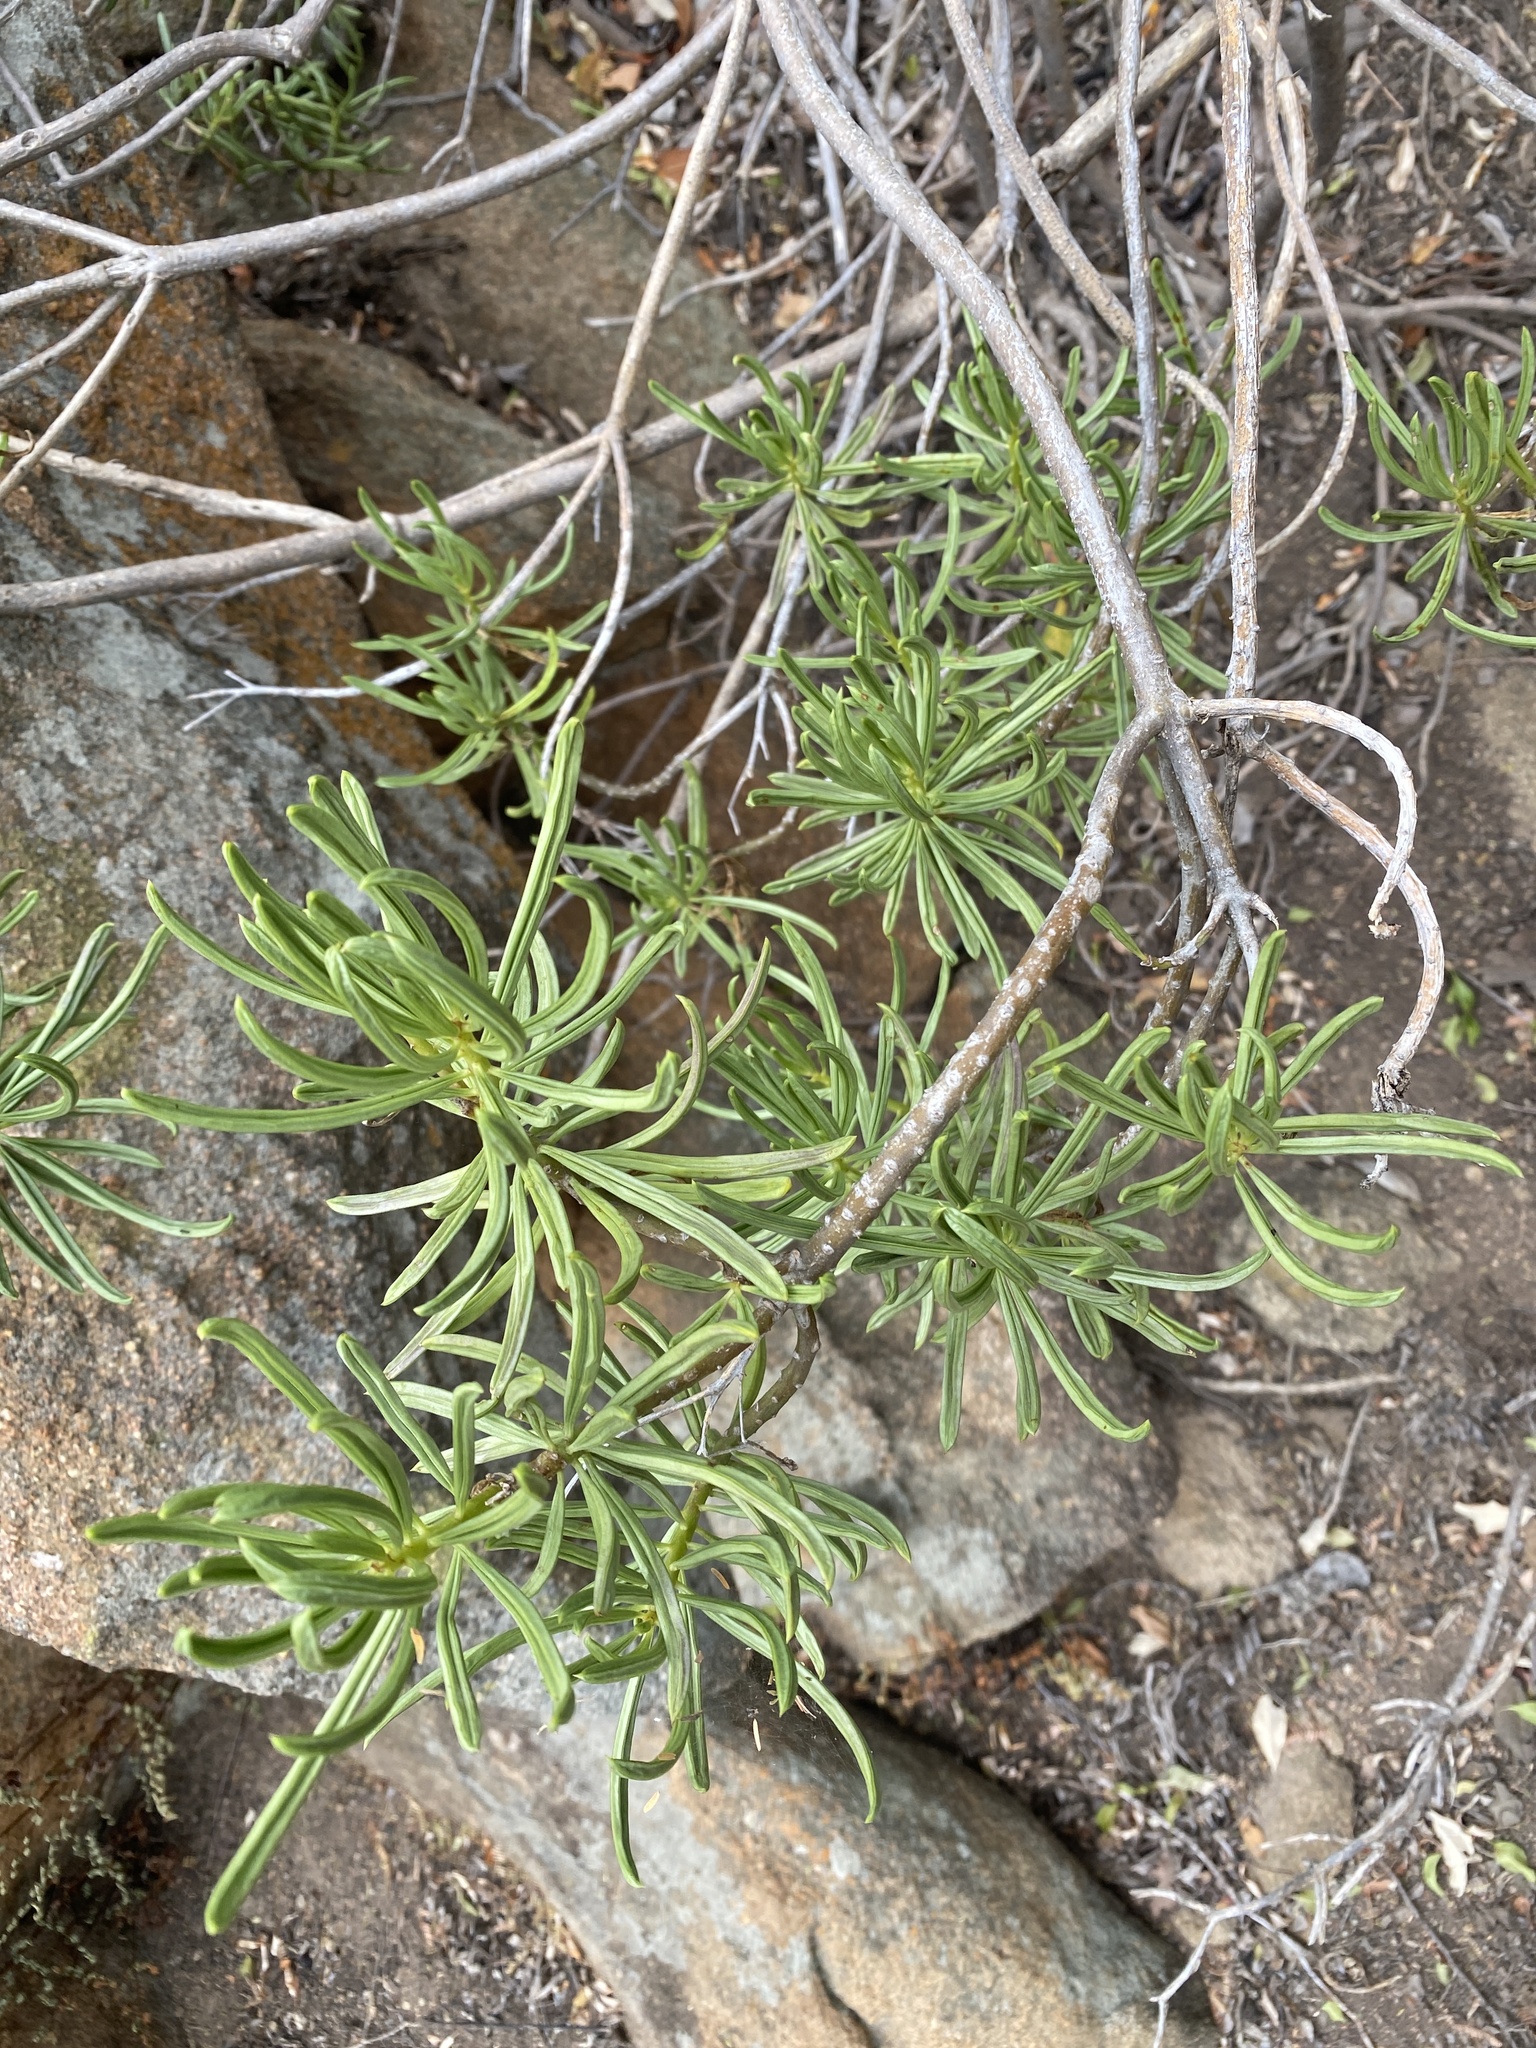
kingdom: Plantae
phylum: Tracheophyta
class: Magnoliopsida
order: Asterales
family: Asteraceae
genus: Kleinia
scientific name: Kleinia barbertonica
